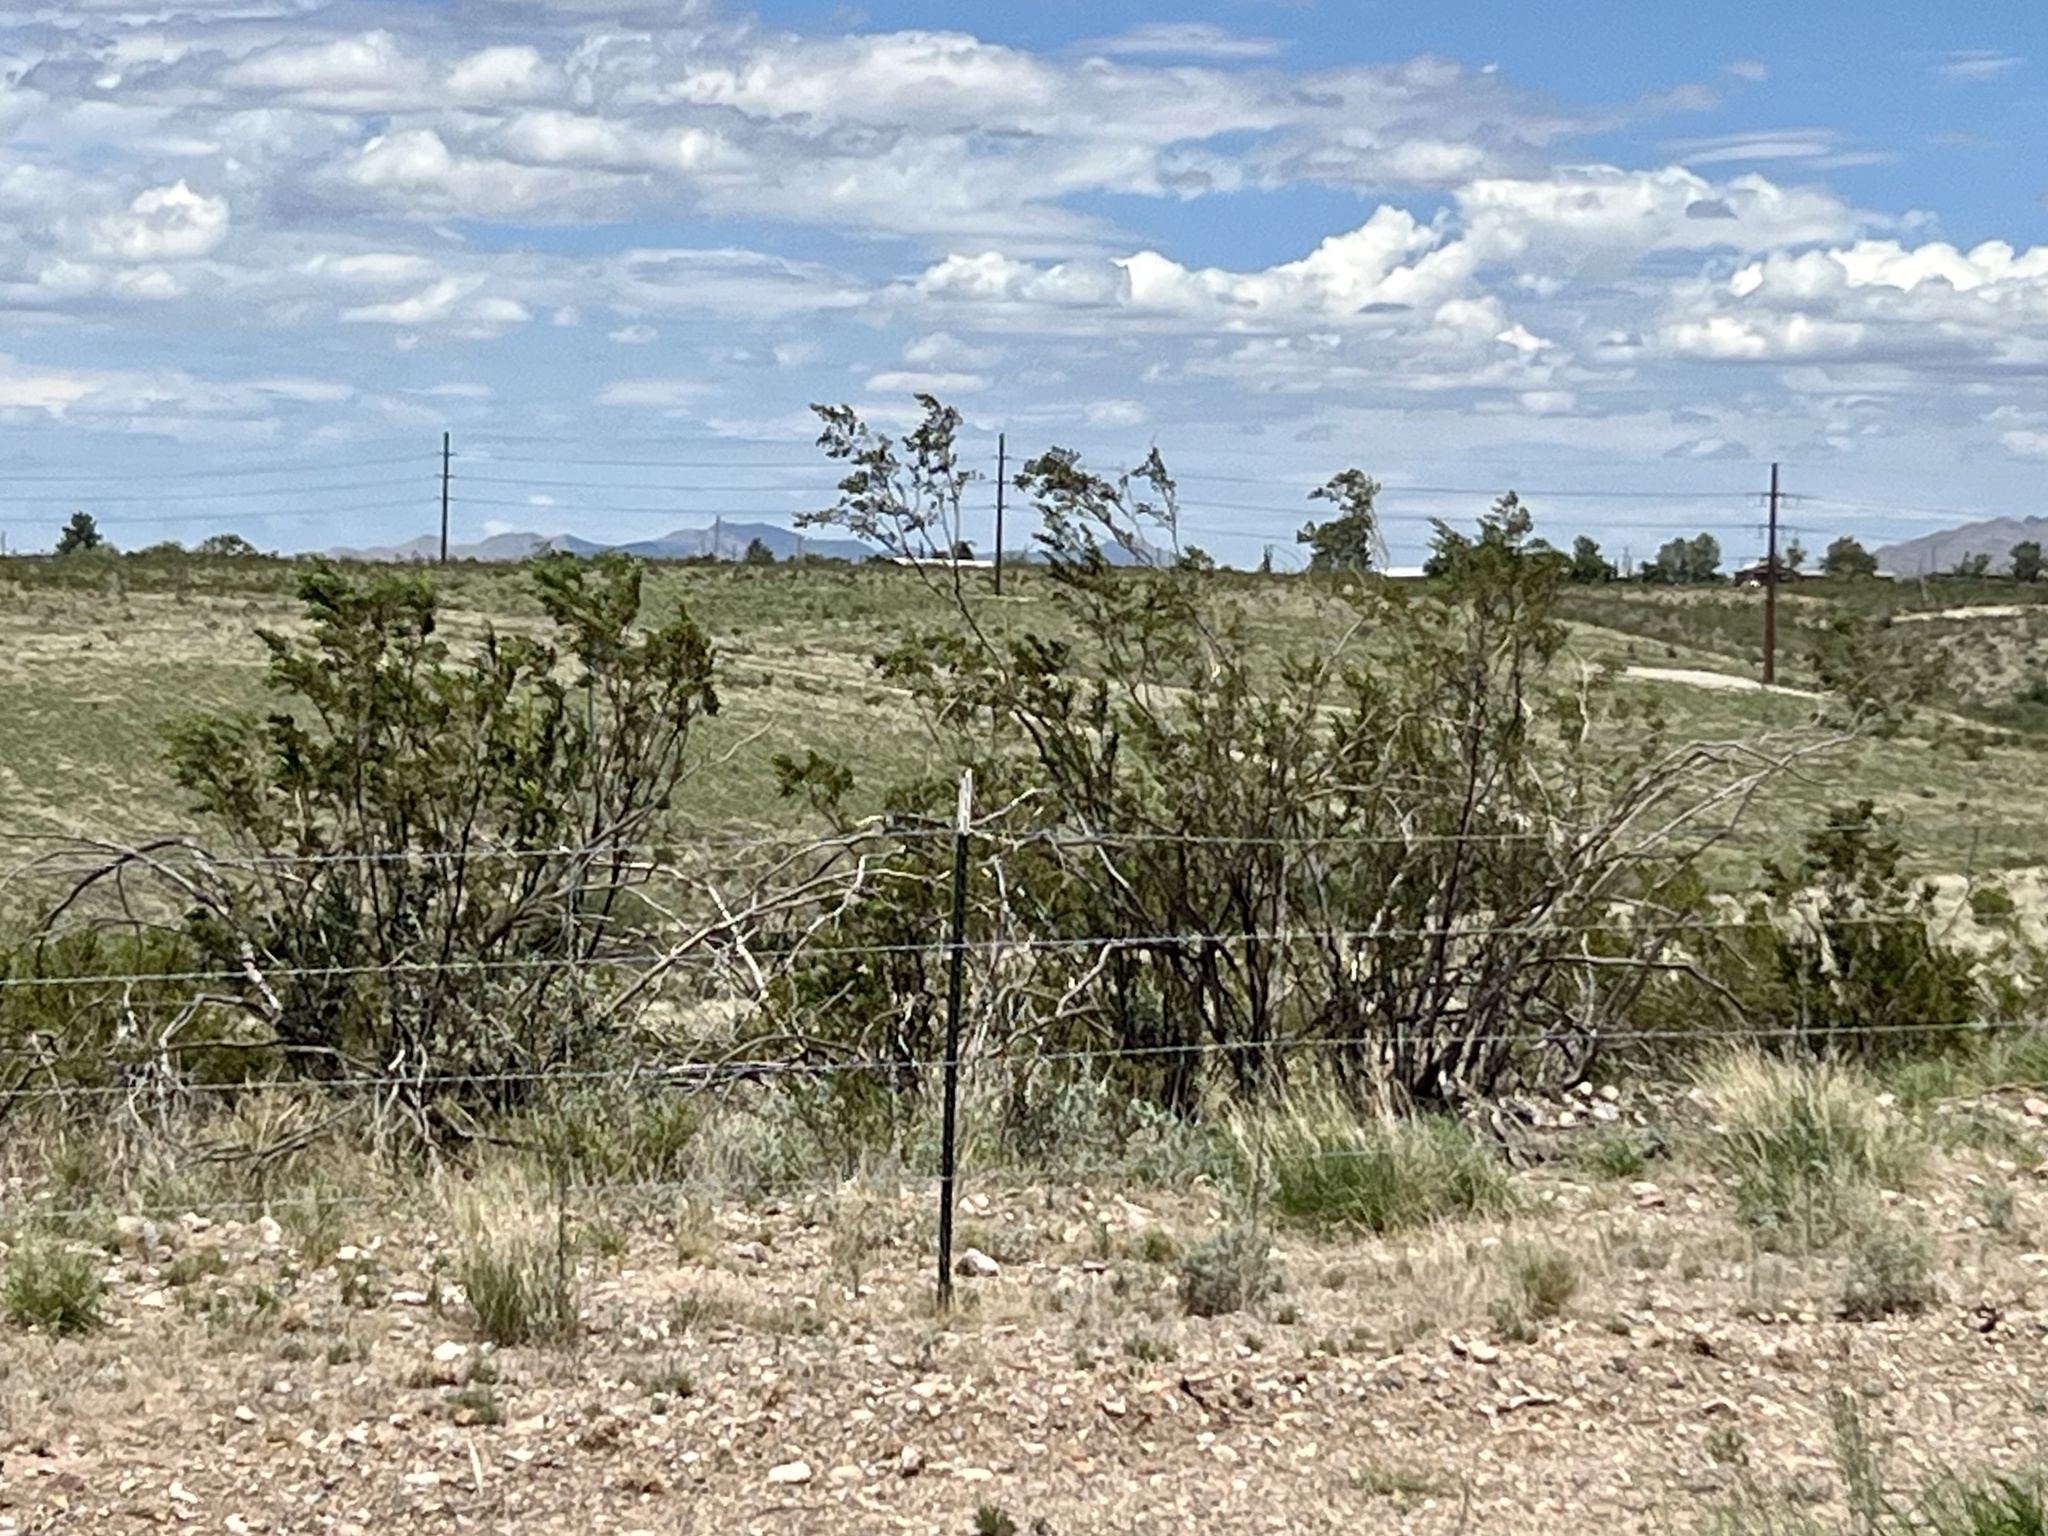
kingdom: Plantae
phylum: Tracheophyta
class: Magnoliopsida
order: Zygophyllales
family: Zygophyllaceae
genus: Larrea
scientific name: Larrea tridentata
